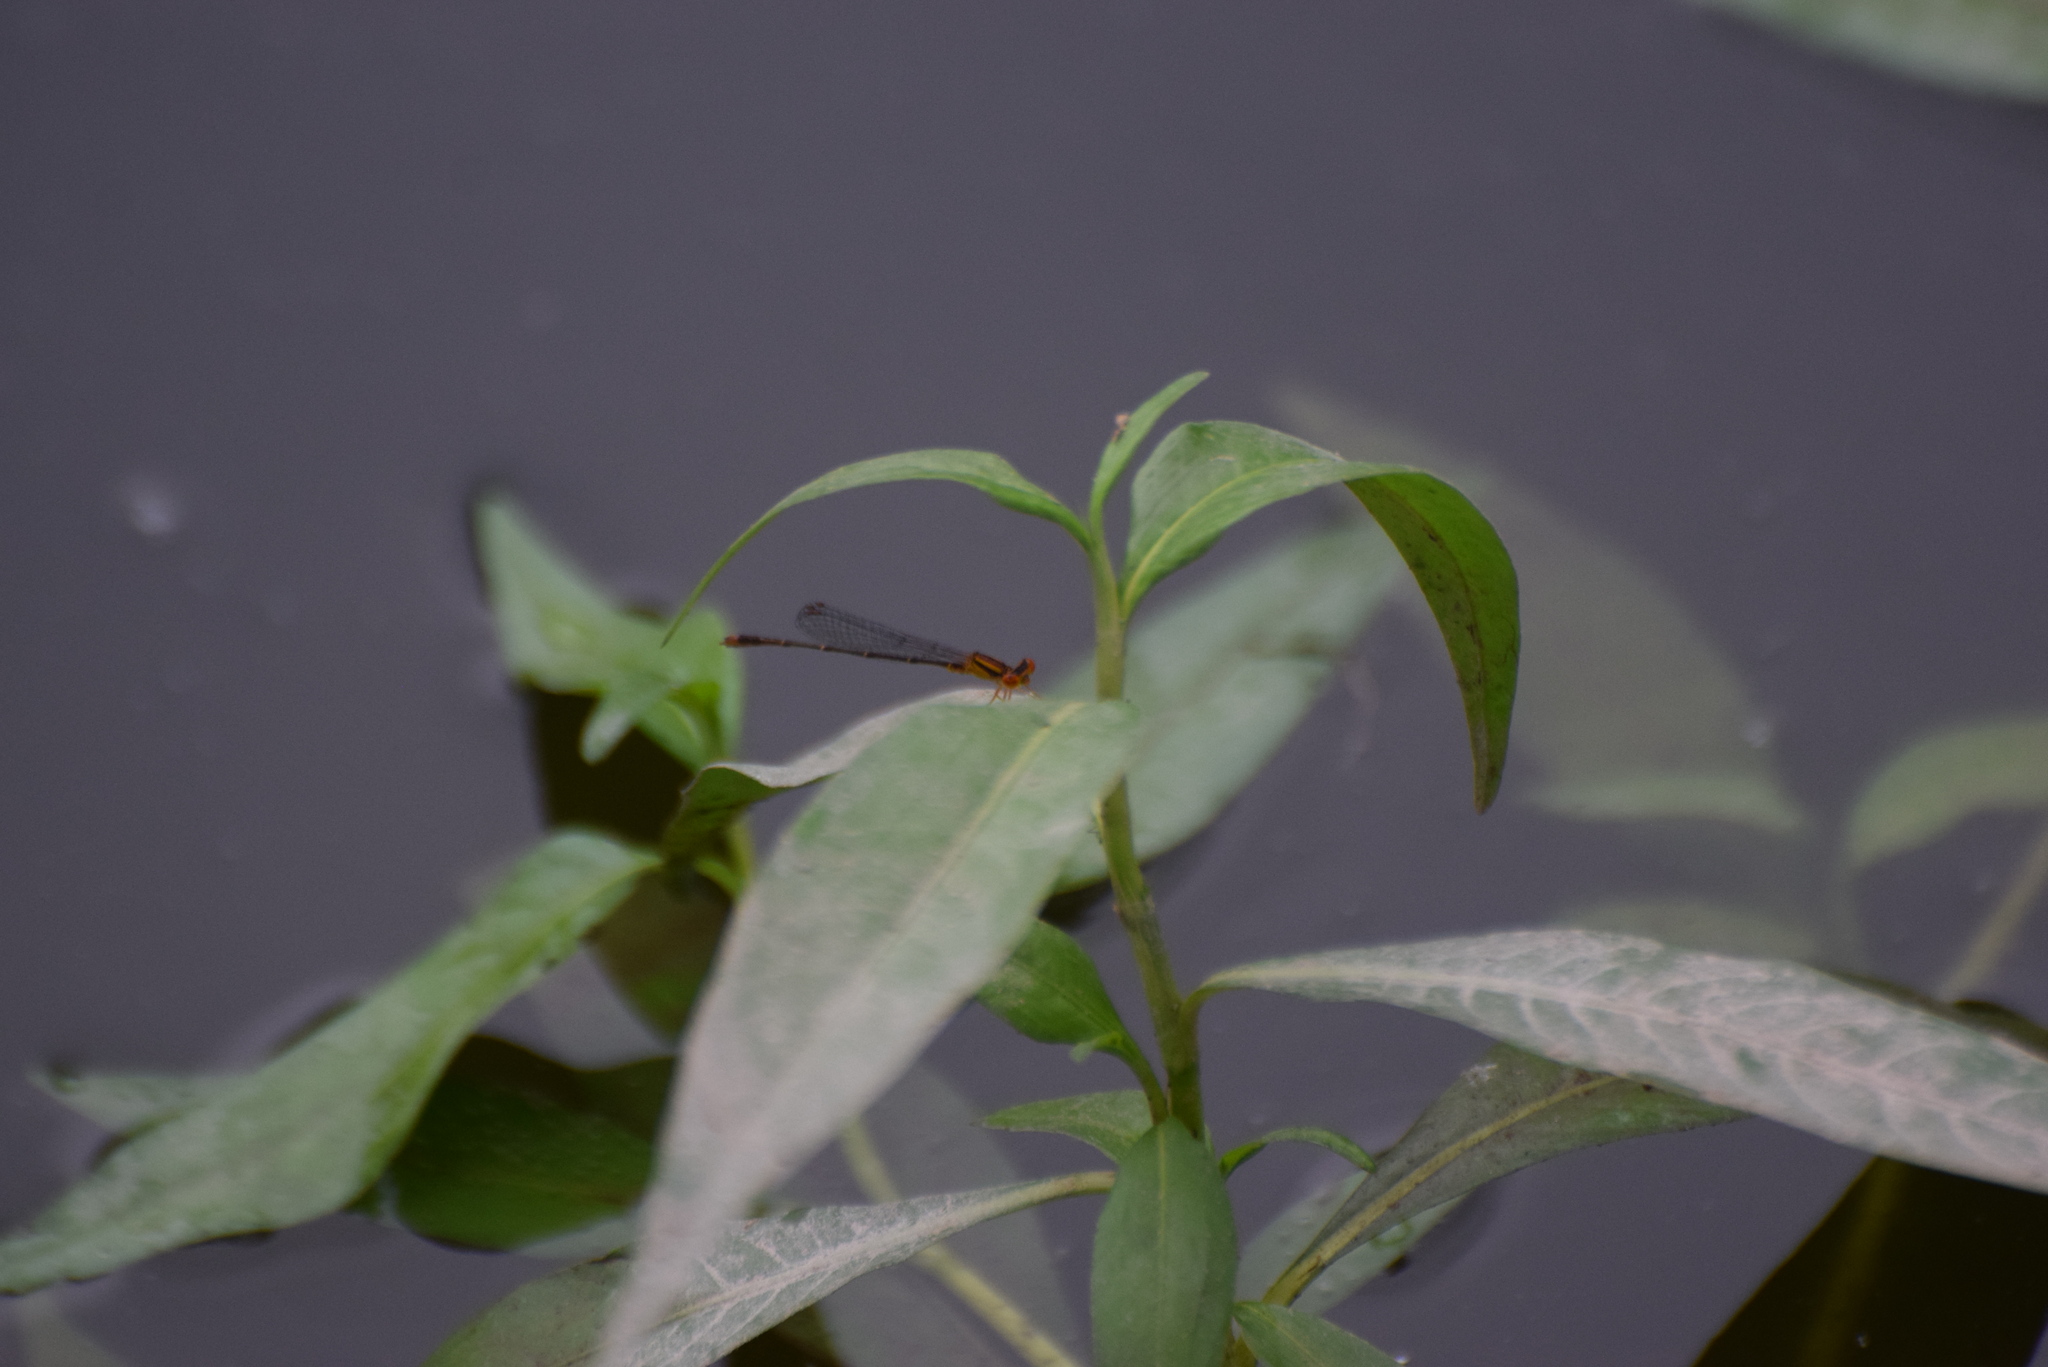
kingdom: Animalia
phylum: Arthropoda
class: Insecta
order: Odonata
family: Coenagrionidae
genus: Enallagma
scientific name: Enallagma signatum
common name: Orange bluet
